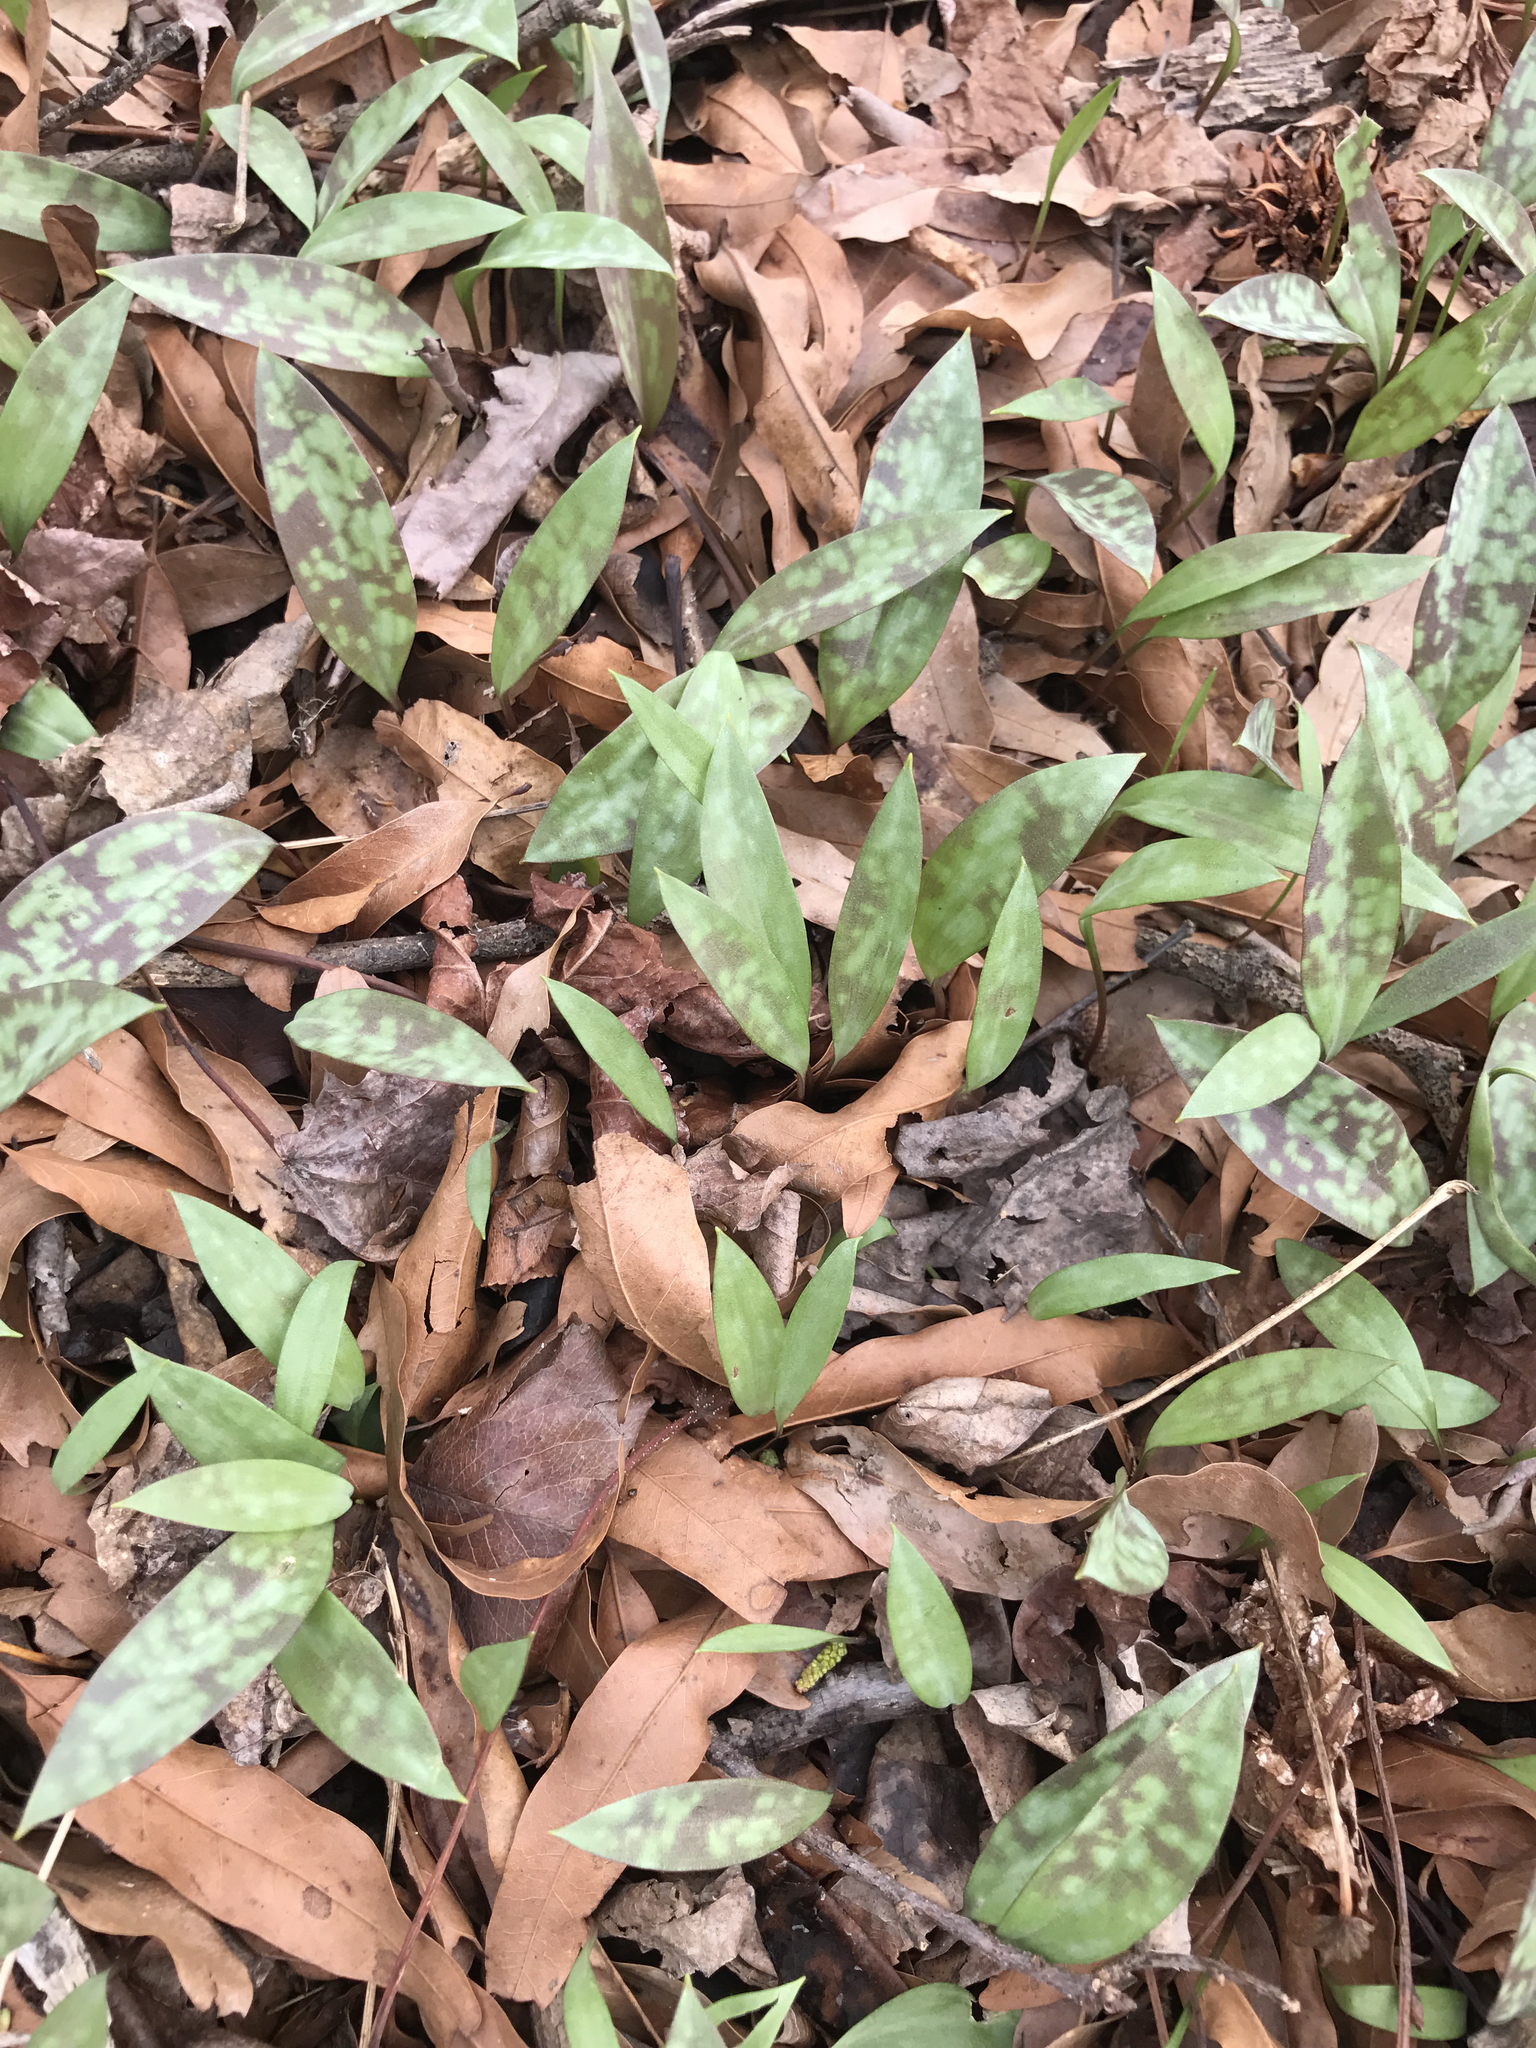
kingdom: Plantae
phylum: Tracheophyta
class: Liliopsida
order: Liliales
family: Liliaceae
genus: Erythronium
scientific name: Erythronium americanum
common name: Yellow adder's-tongue
